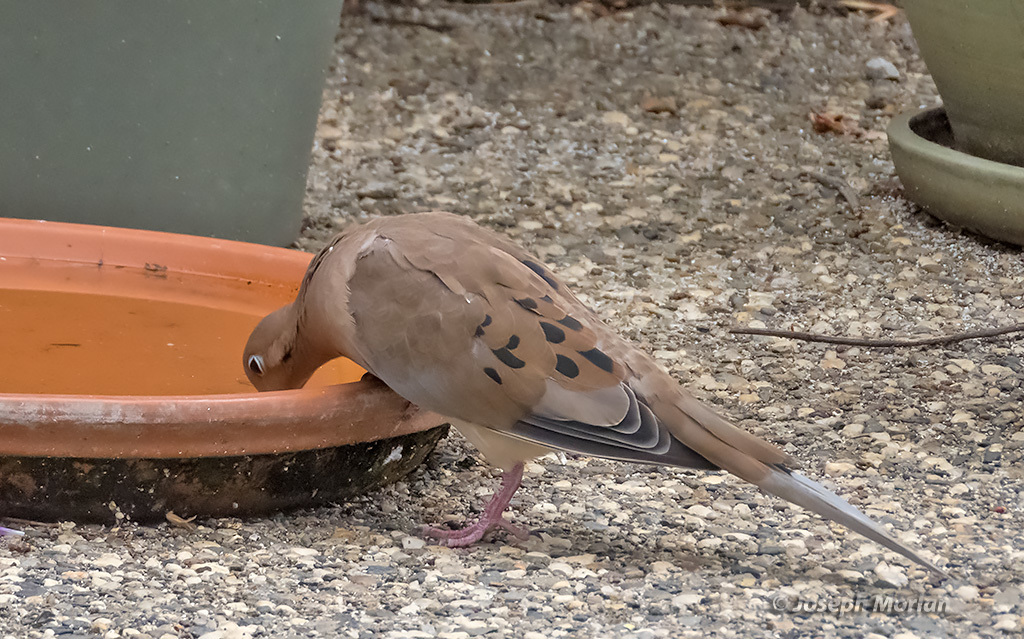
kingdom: Animalia
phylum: Chordata
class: Aves
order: Columbiformes
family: Columbidae
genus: Zenaida
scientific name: Zenaida macroura
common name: Mourning dove
